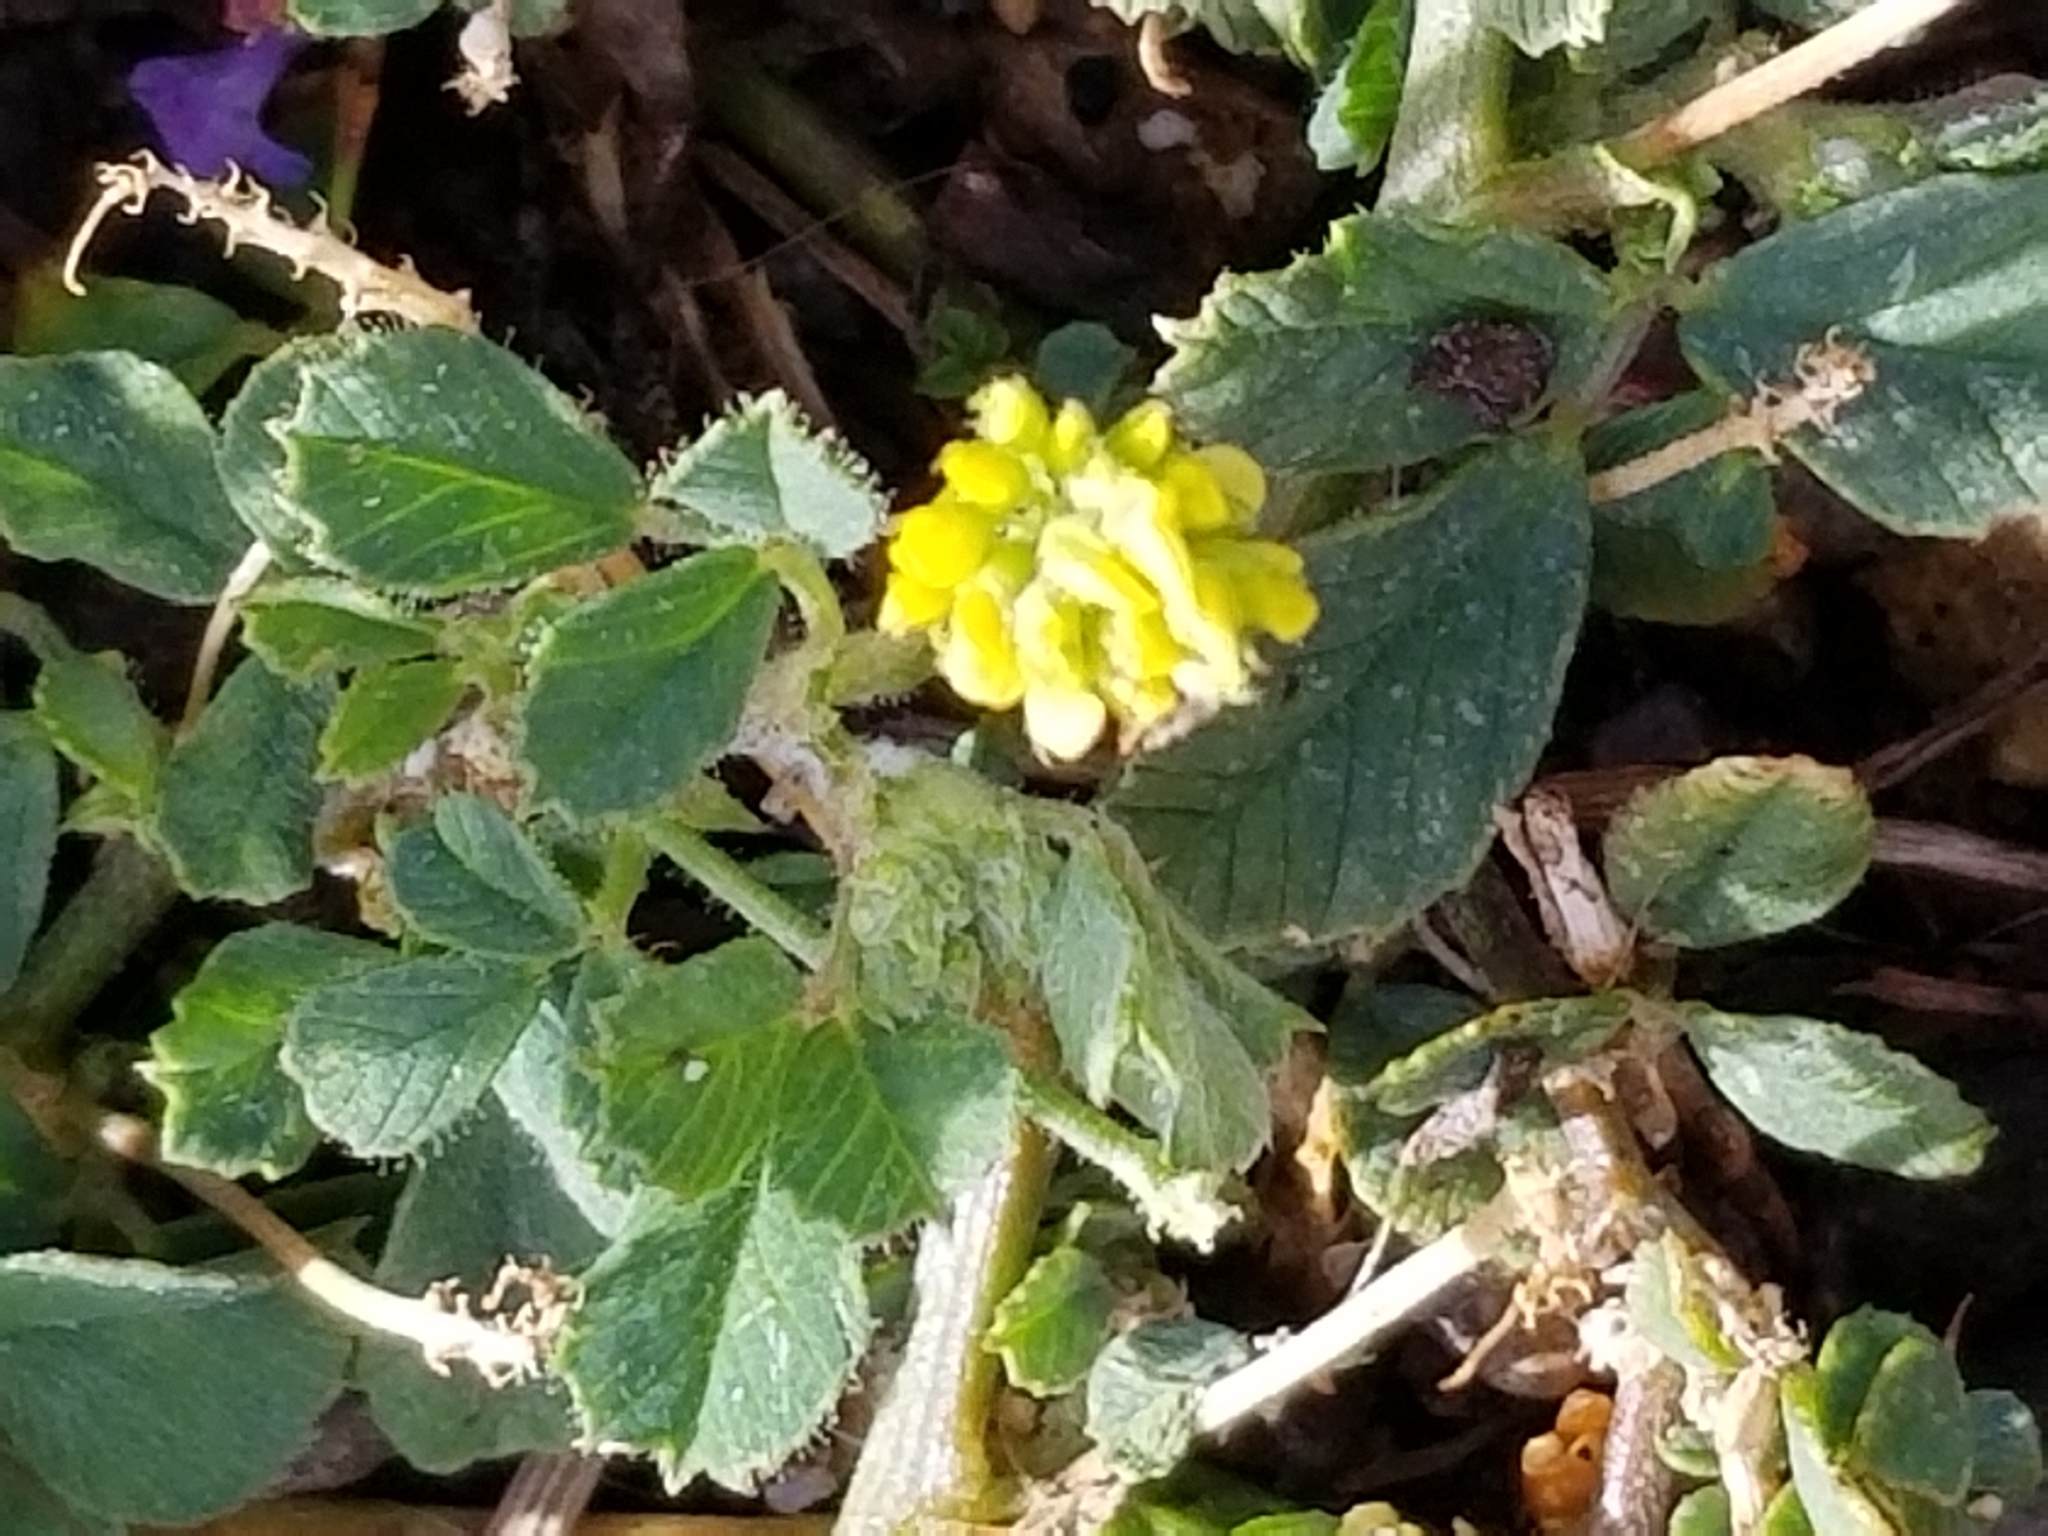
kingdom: Plantae
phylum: Tracheophyta
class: Magnoliopsida
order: Fabales
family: Fabaceae
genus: Medicago
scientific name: Medicago lupulina
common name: Black medick
